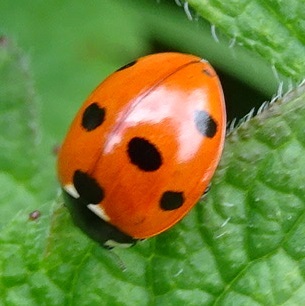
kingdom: Animalia
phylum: Arthropoda
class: Insecta
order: Coleoptera
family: Coccinellidae
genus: Coccinella
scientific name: Coccinella septempunctata
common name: Sevenspotted lady beetle
